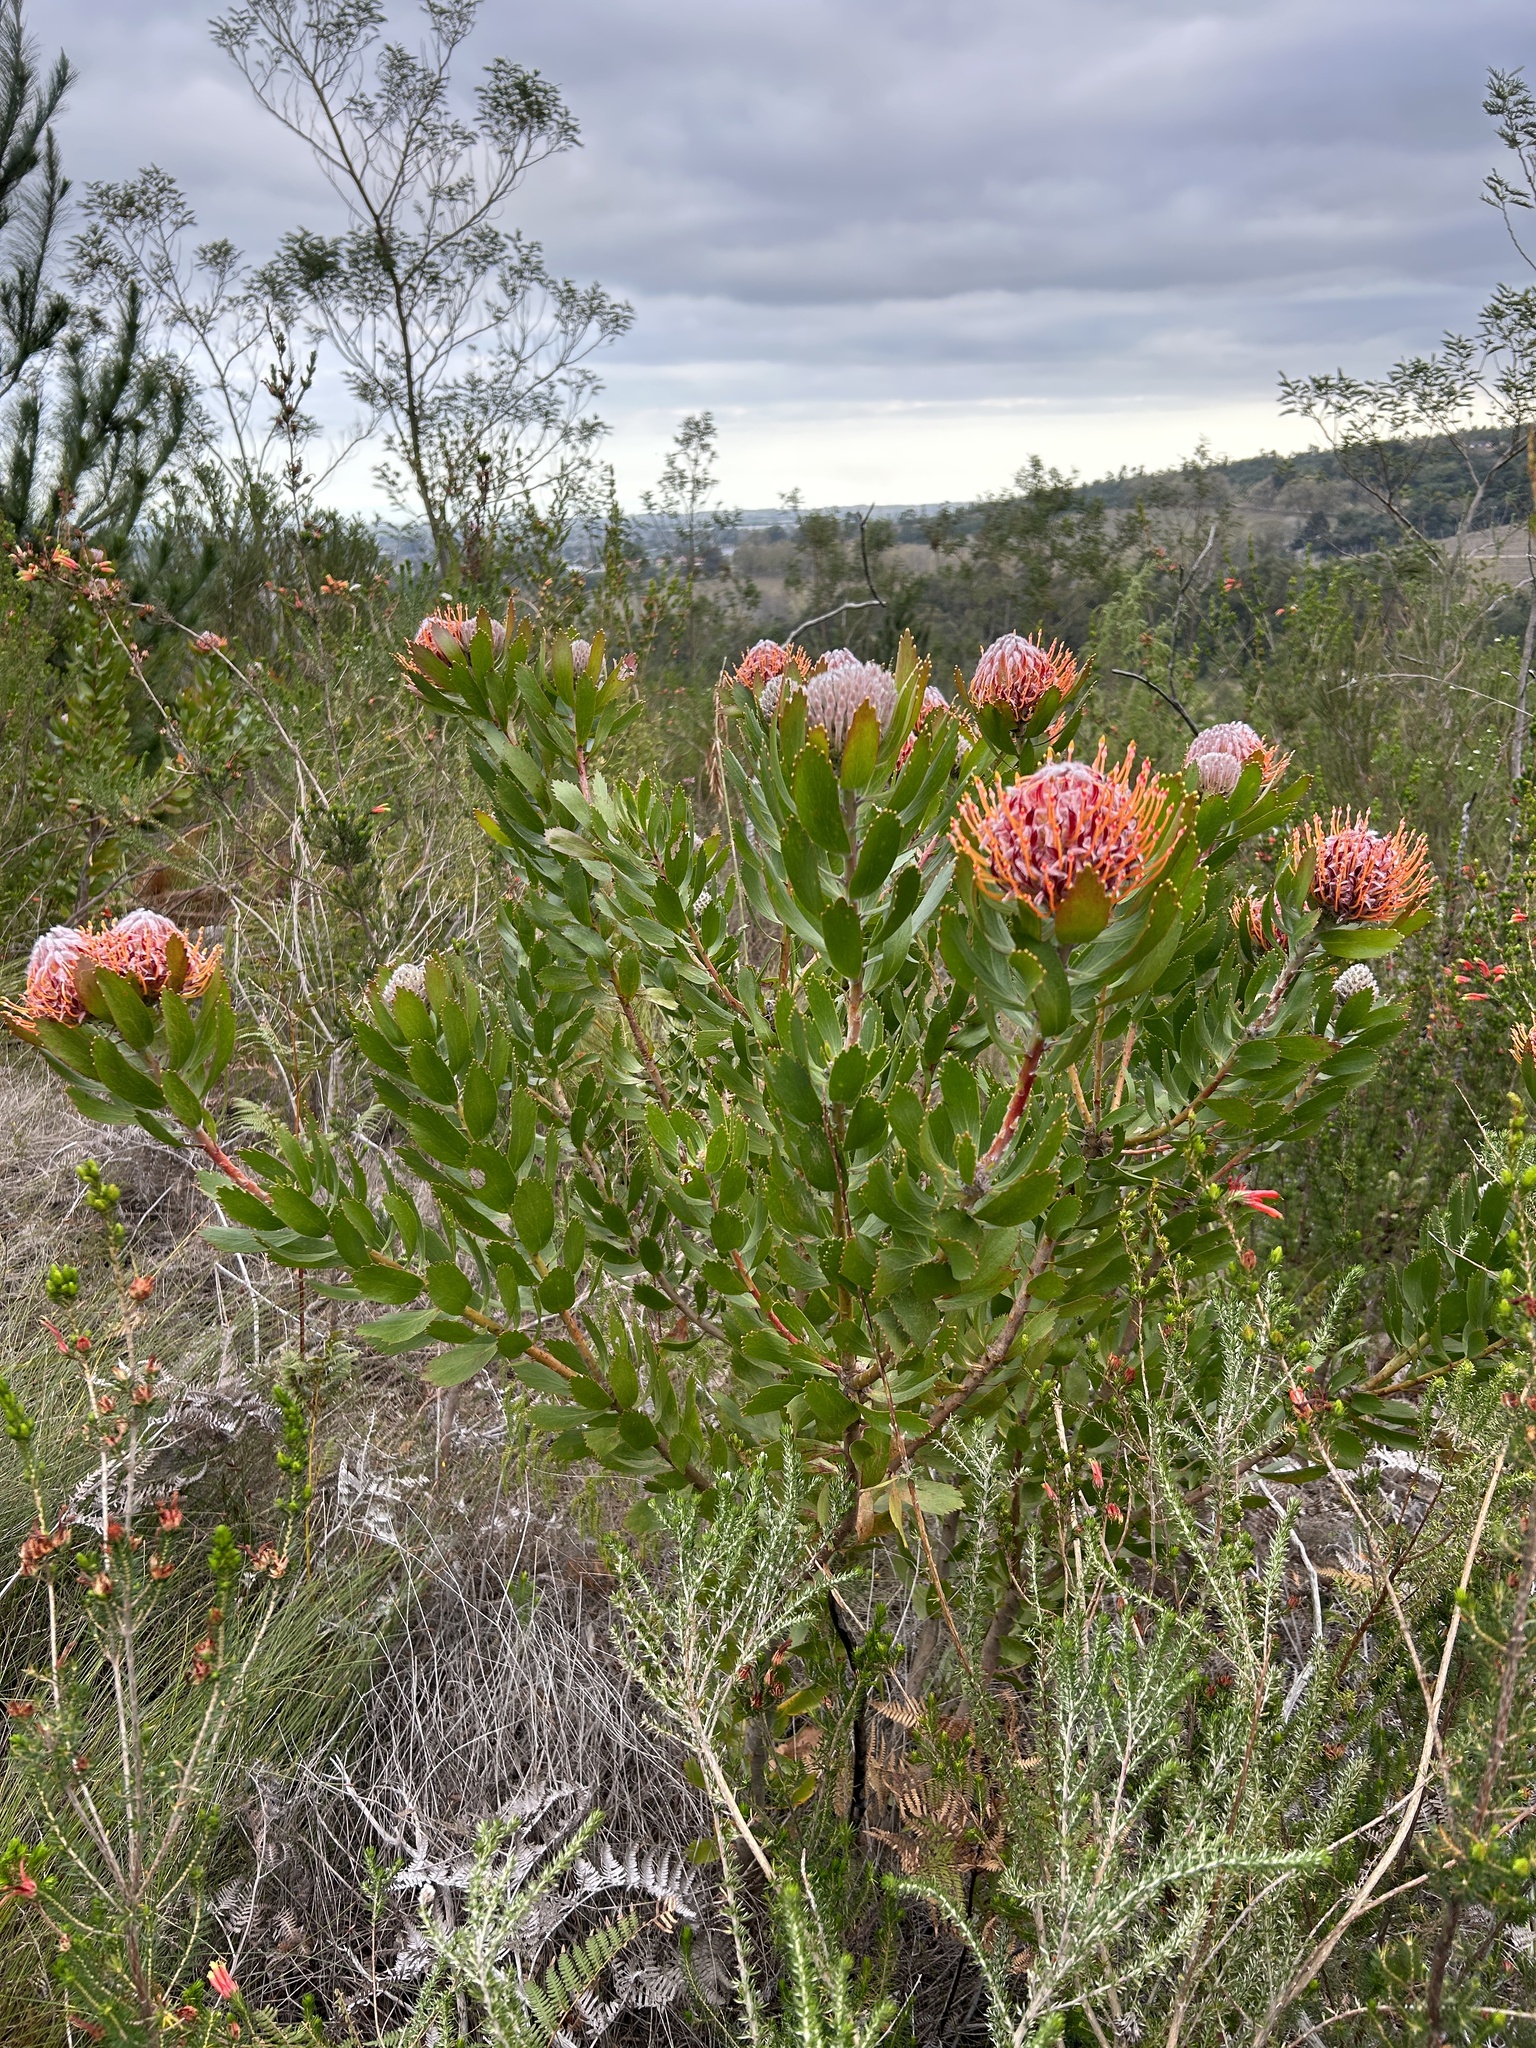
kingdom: Plantae
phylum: Tracheophyta
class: Magnoliopsida
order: Proteales
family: Proteaceae
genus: Leucospermum
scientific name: Leucospermum glabrum
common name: Outeniqua pincushion
